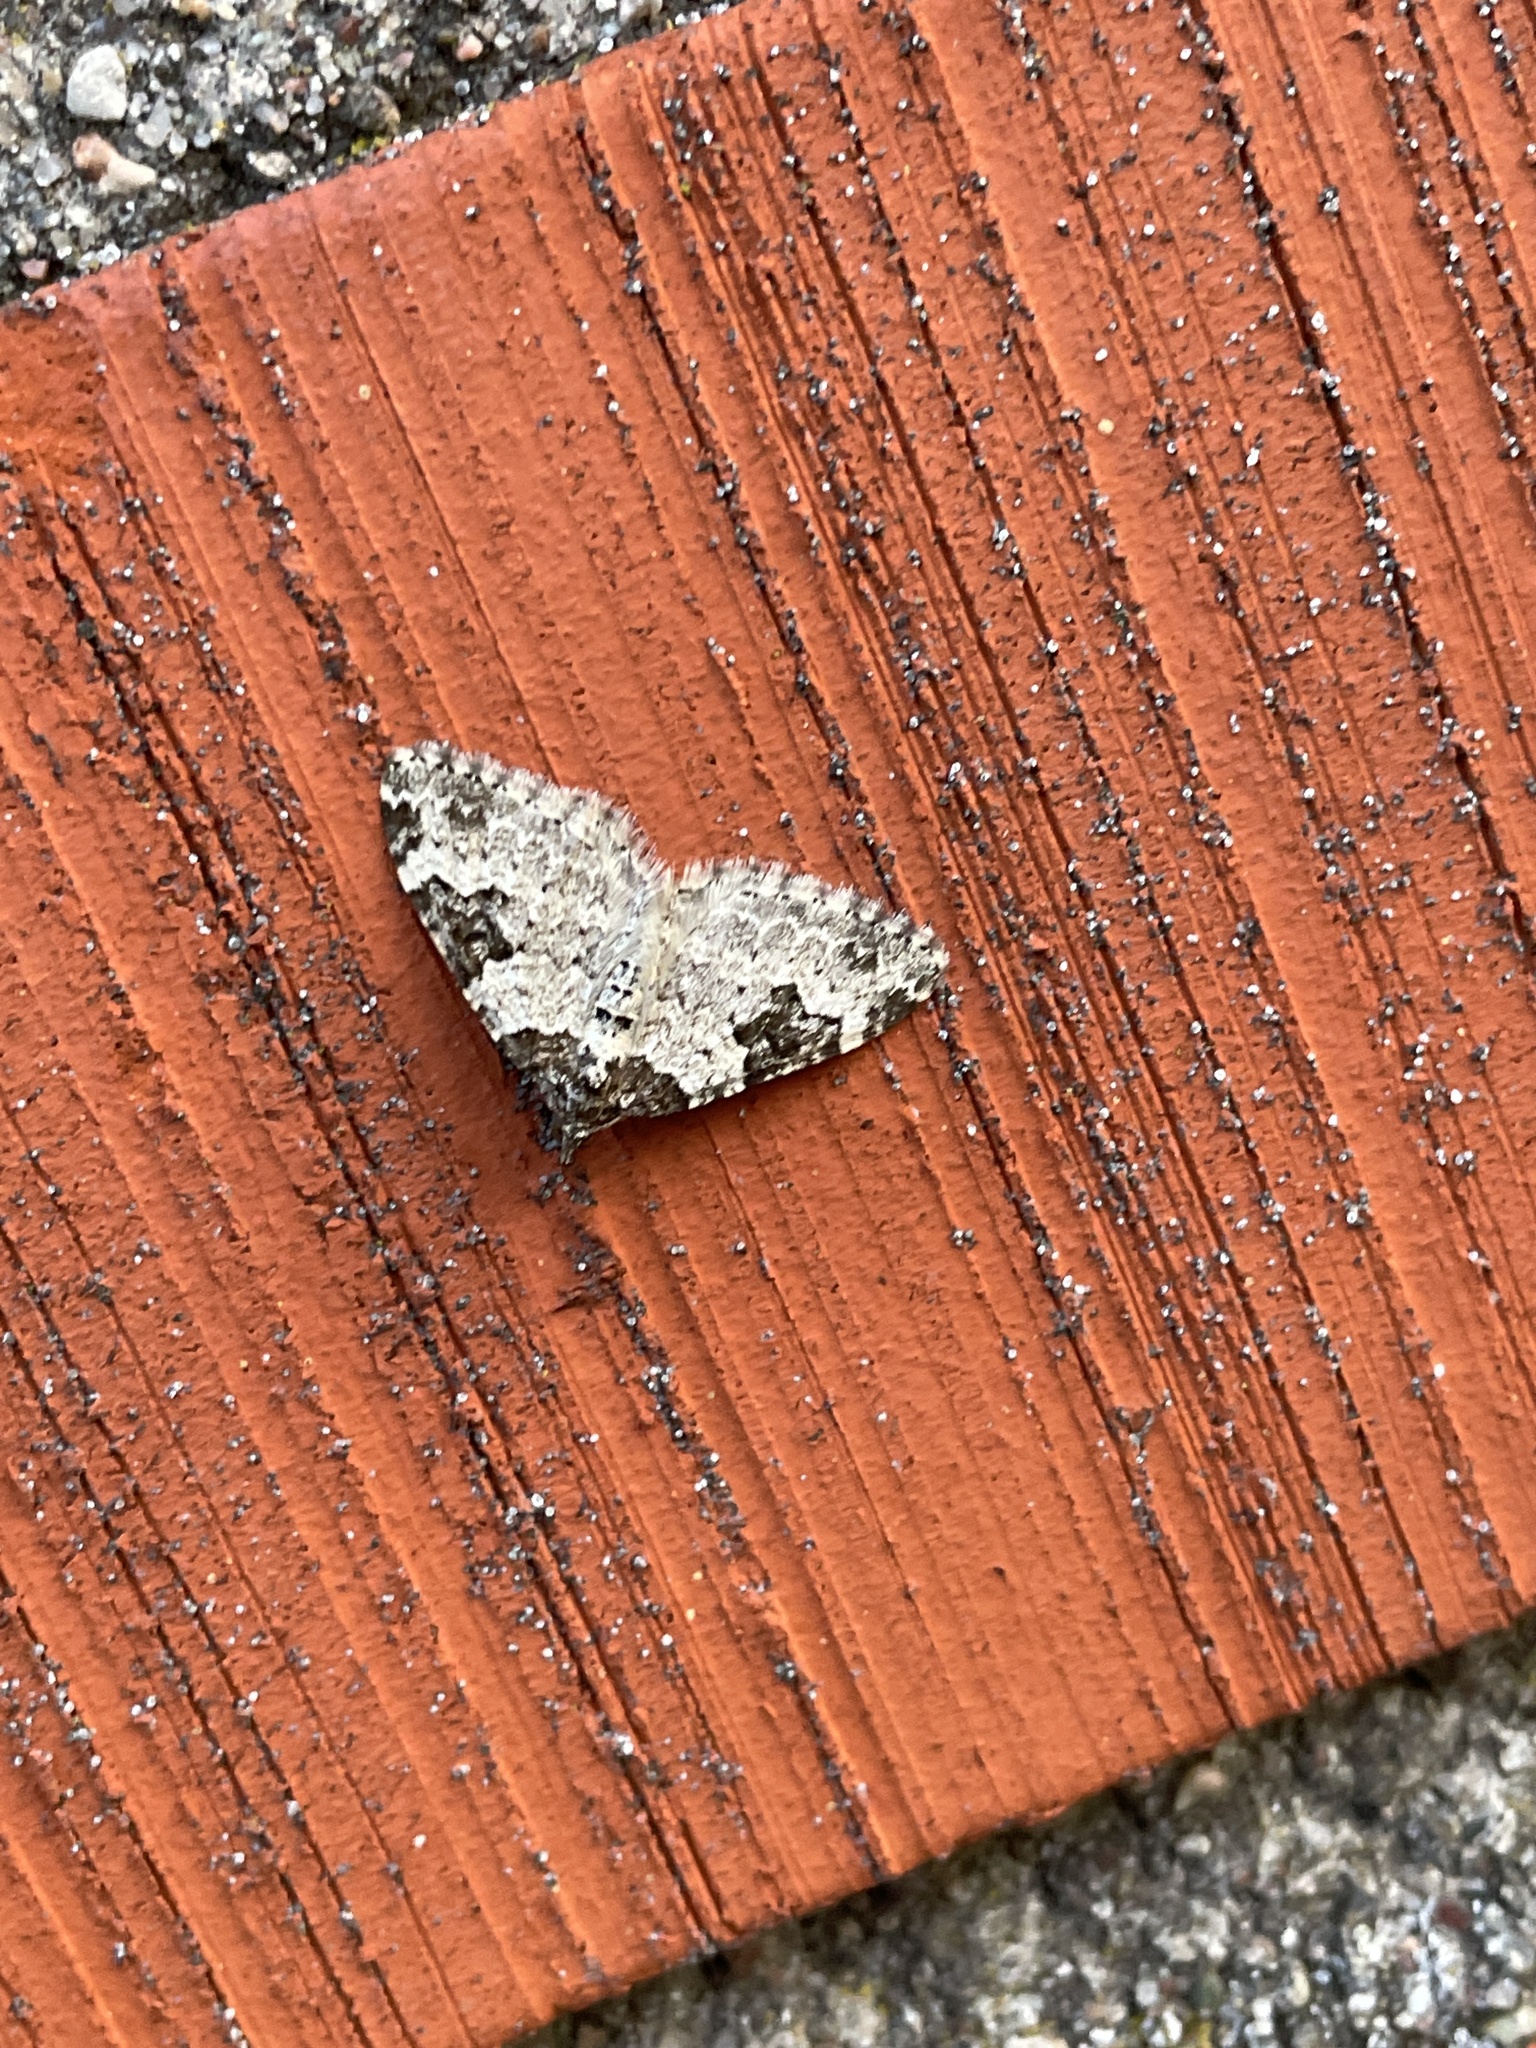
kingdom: Animalia
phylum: Arthropoda
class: Insecta
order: Lepidoptera
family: Geometridae
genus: Xanthorhoe
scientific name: Xanthorhoe fluctuata
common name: Garden carpet
